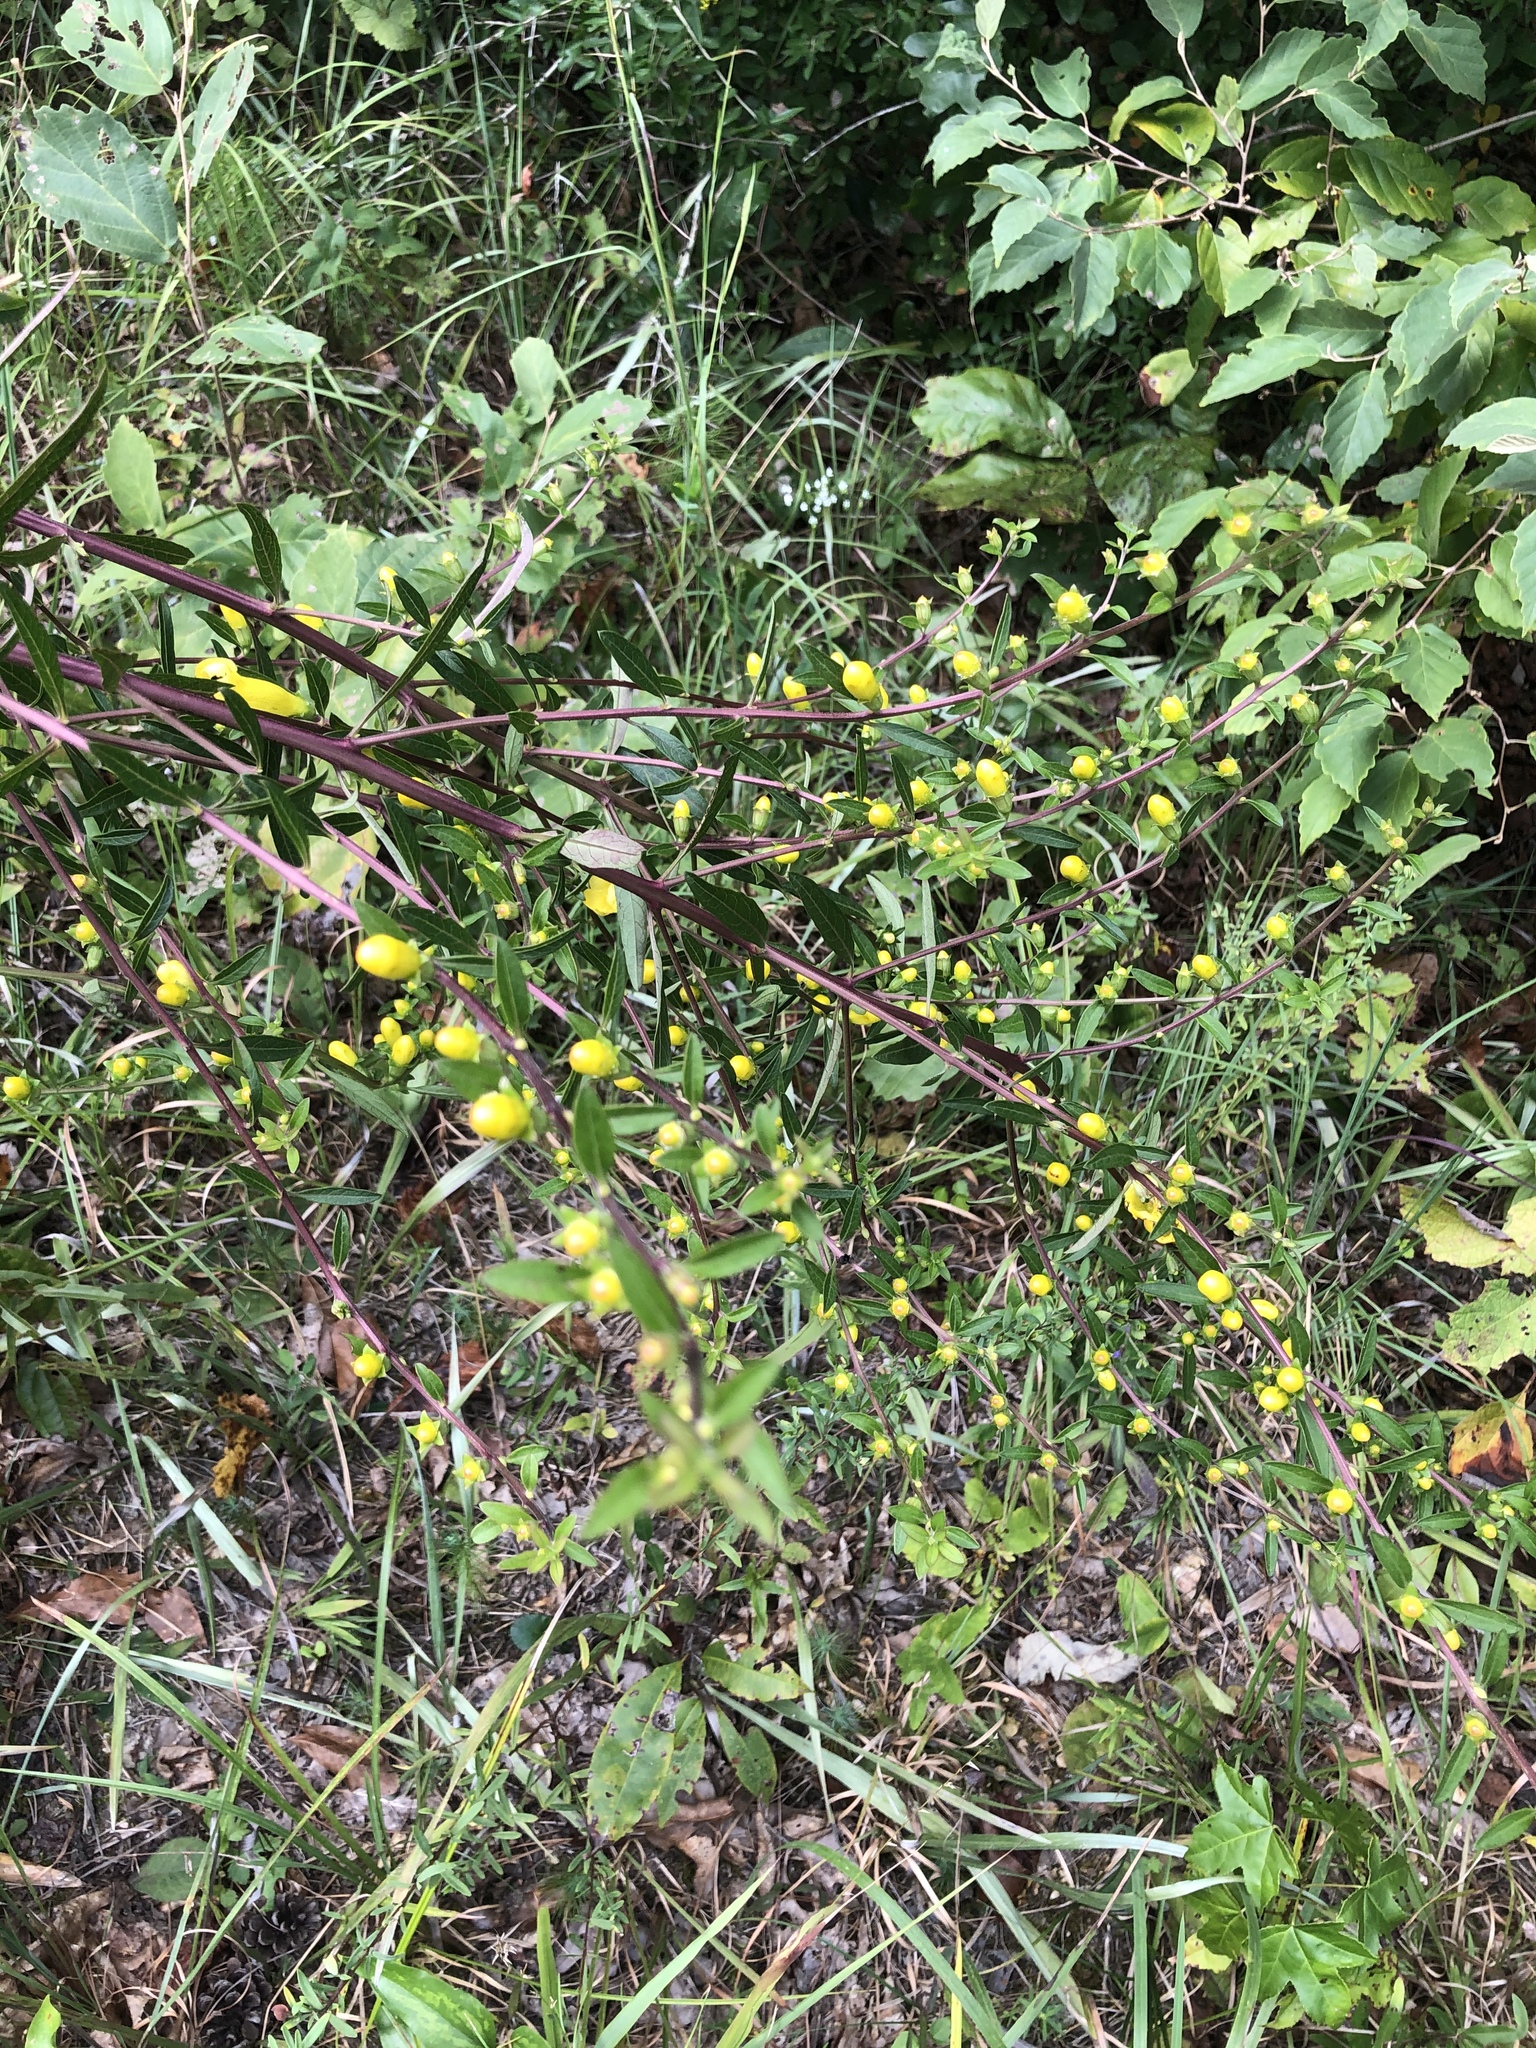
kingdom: Plantae
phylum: Tracheophyta
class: Magnoliopsida
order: Lamiales
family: Orobanchaceae
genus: Aureolaria
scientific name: Aureolaria grandiflora
